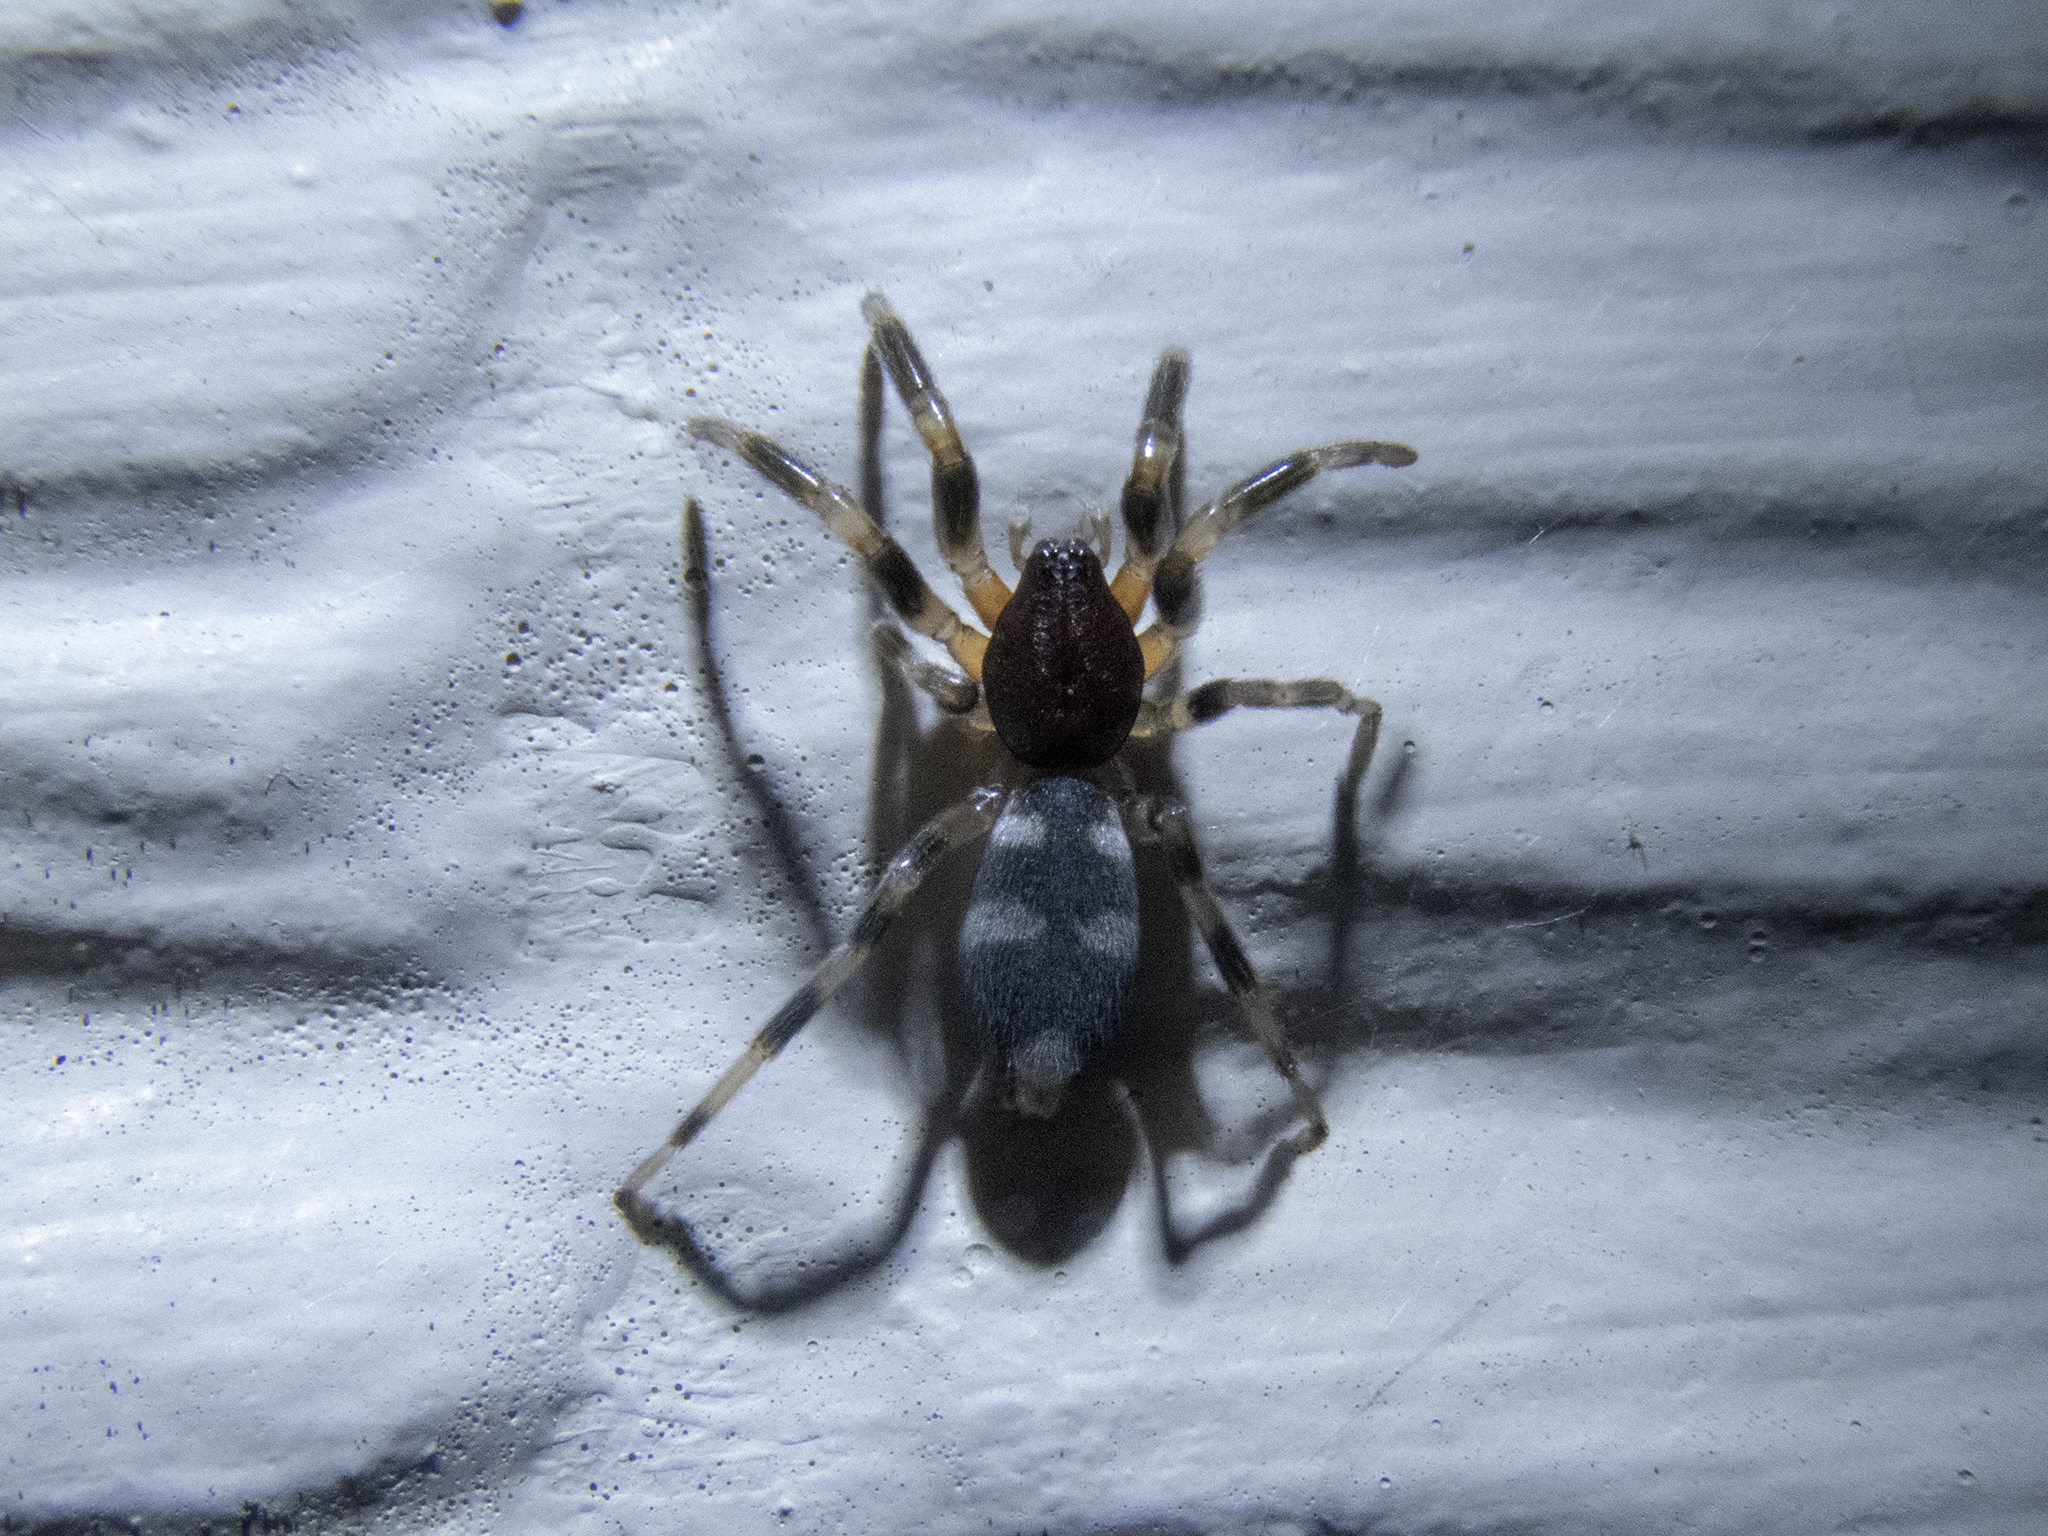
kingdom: Animalia
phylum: Arthropoda
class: Arachnida
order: Araneae
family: Lamponidae
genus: Lampona
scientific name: Lampona cylindrata
